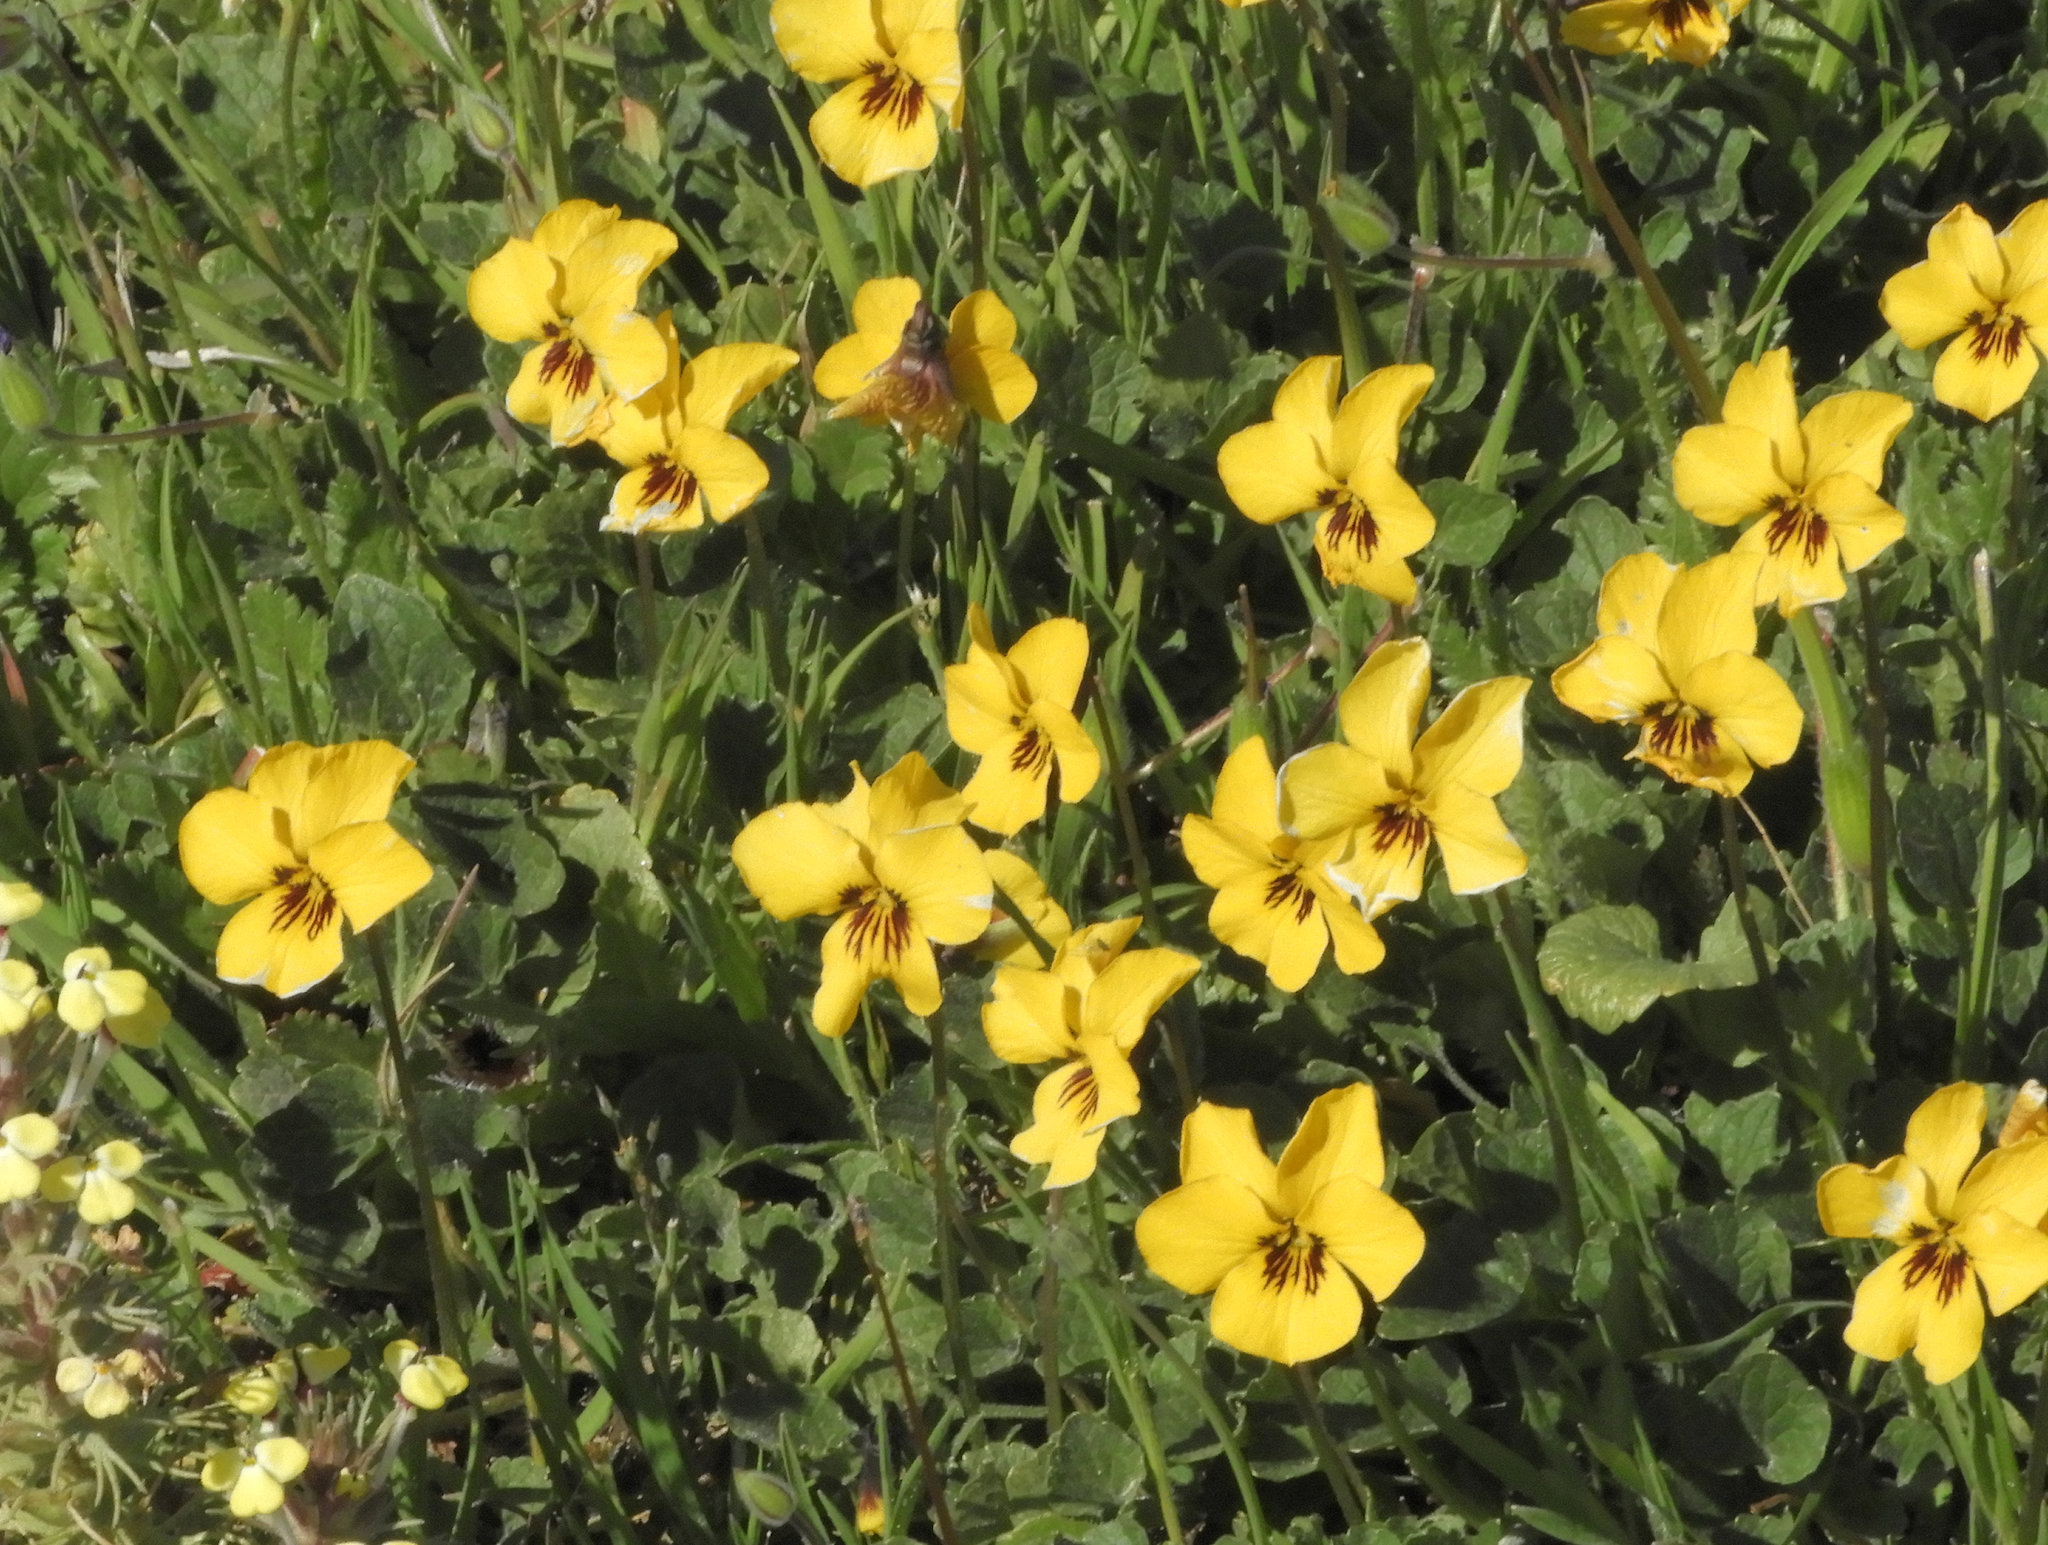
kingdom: Plantae
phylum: Tracheophyta
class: Magnoliopsida
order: Malpighiales
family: Violaceae
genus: Viola
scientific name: Viola pedunculata
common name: California golden violet
